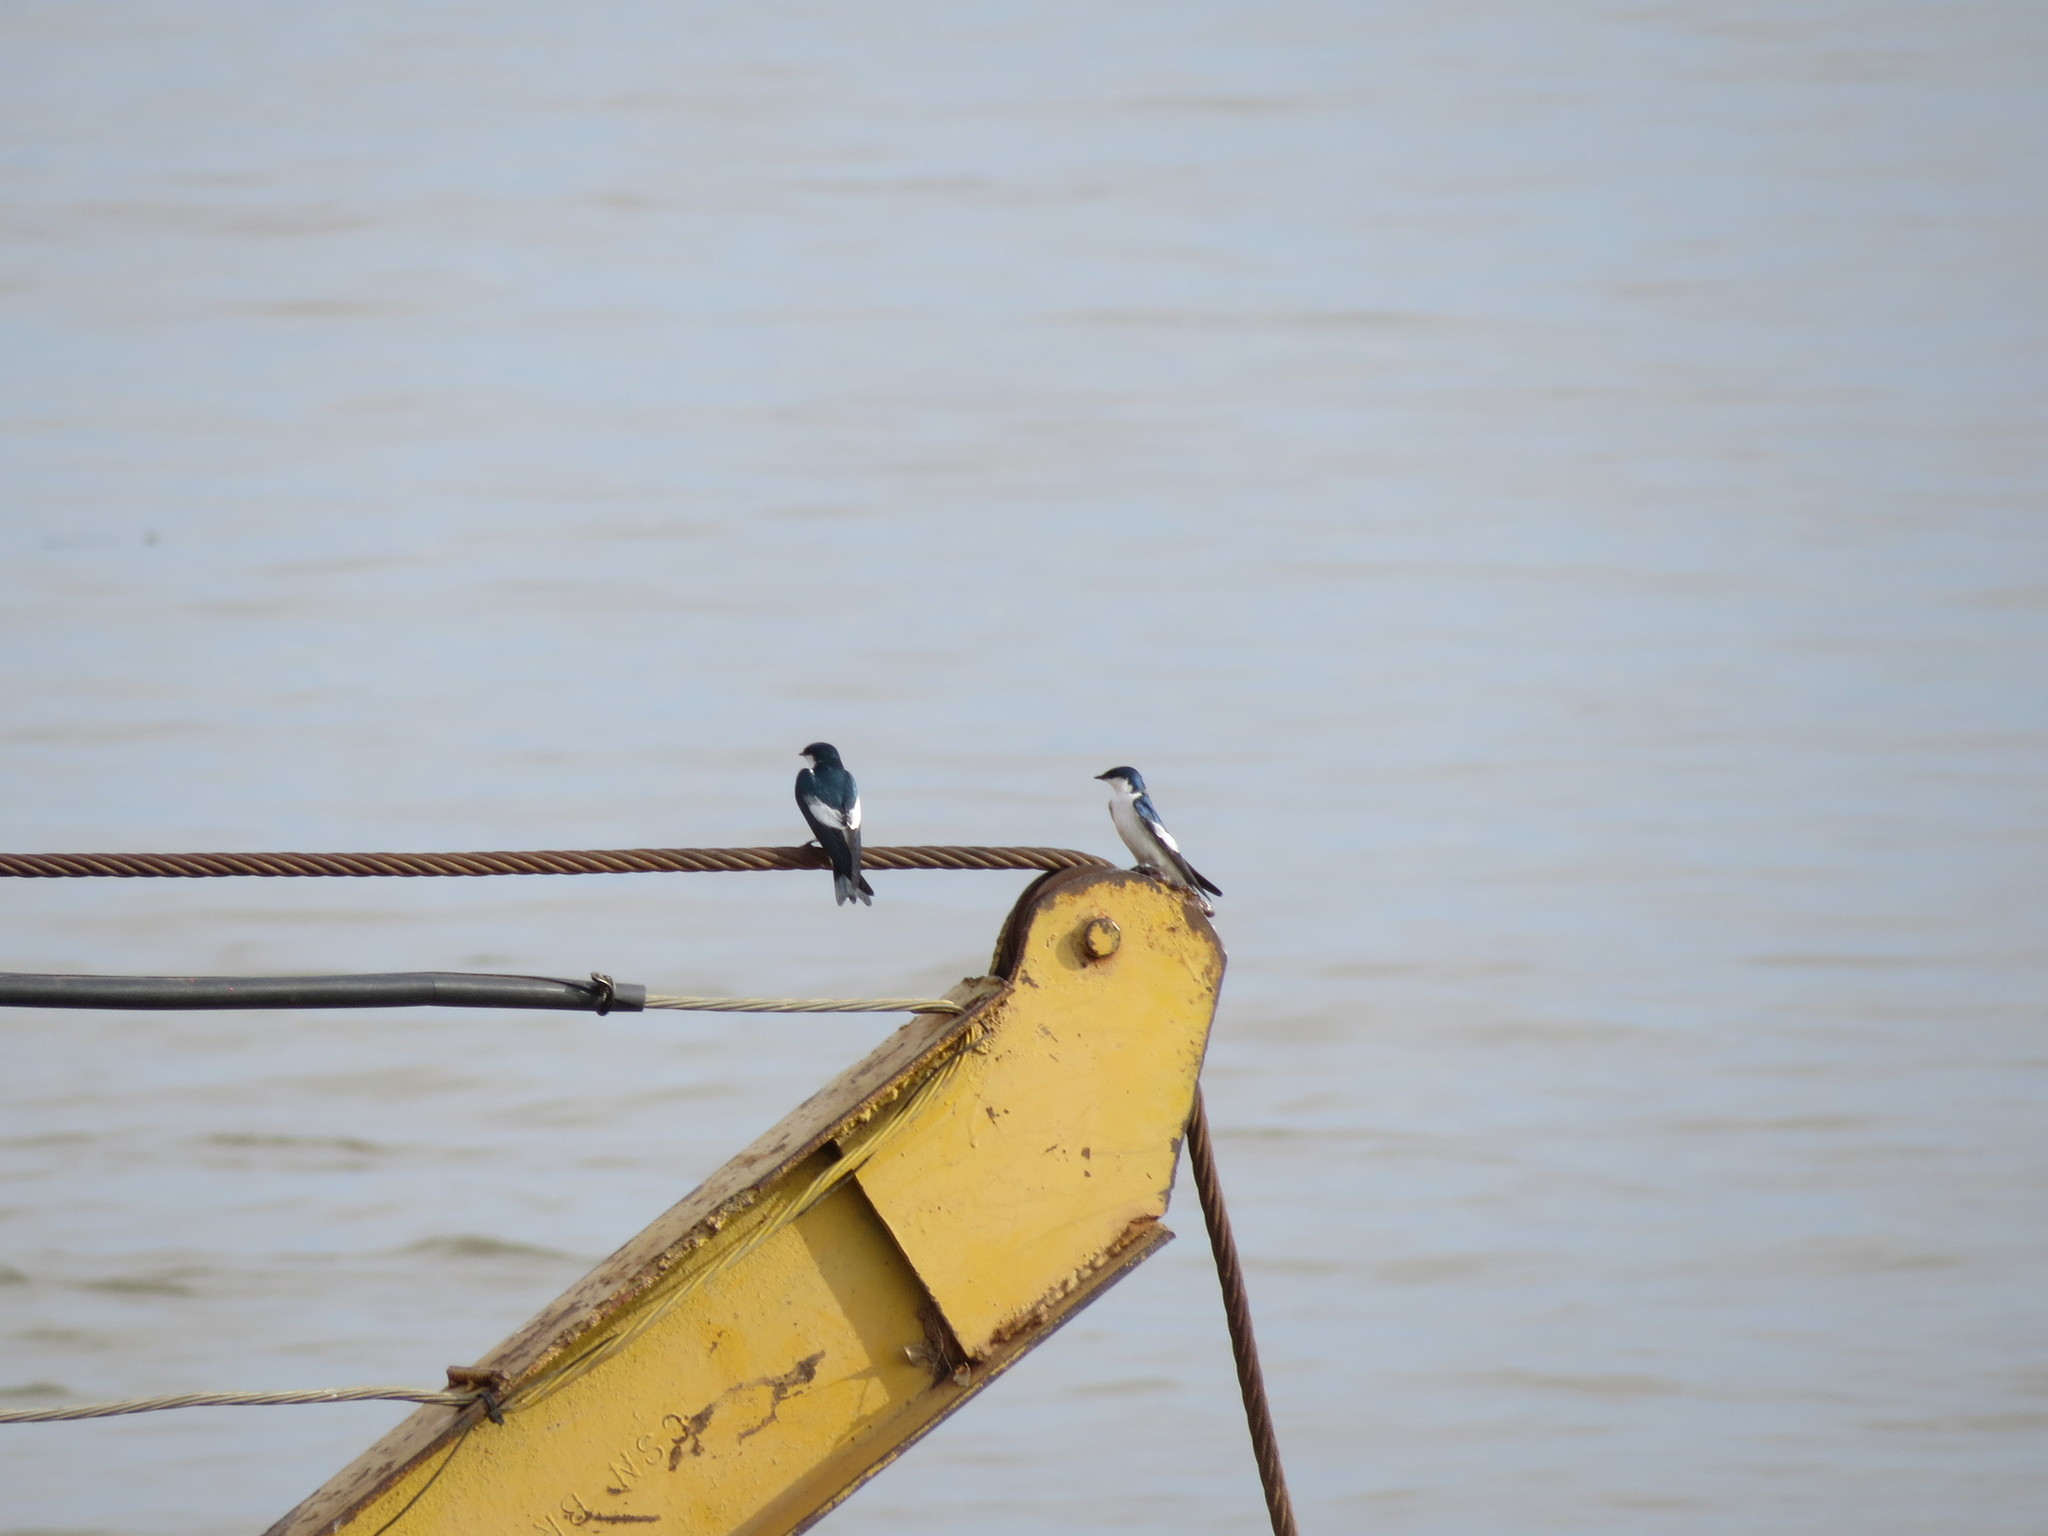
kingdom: Animalia
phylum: Chordata
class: Aves
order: Passeriformes
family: Hirundinidae
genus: Tachycineta
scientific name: Tachycineta albiventer
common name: White-winged swallow
